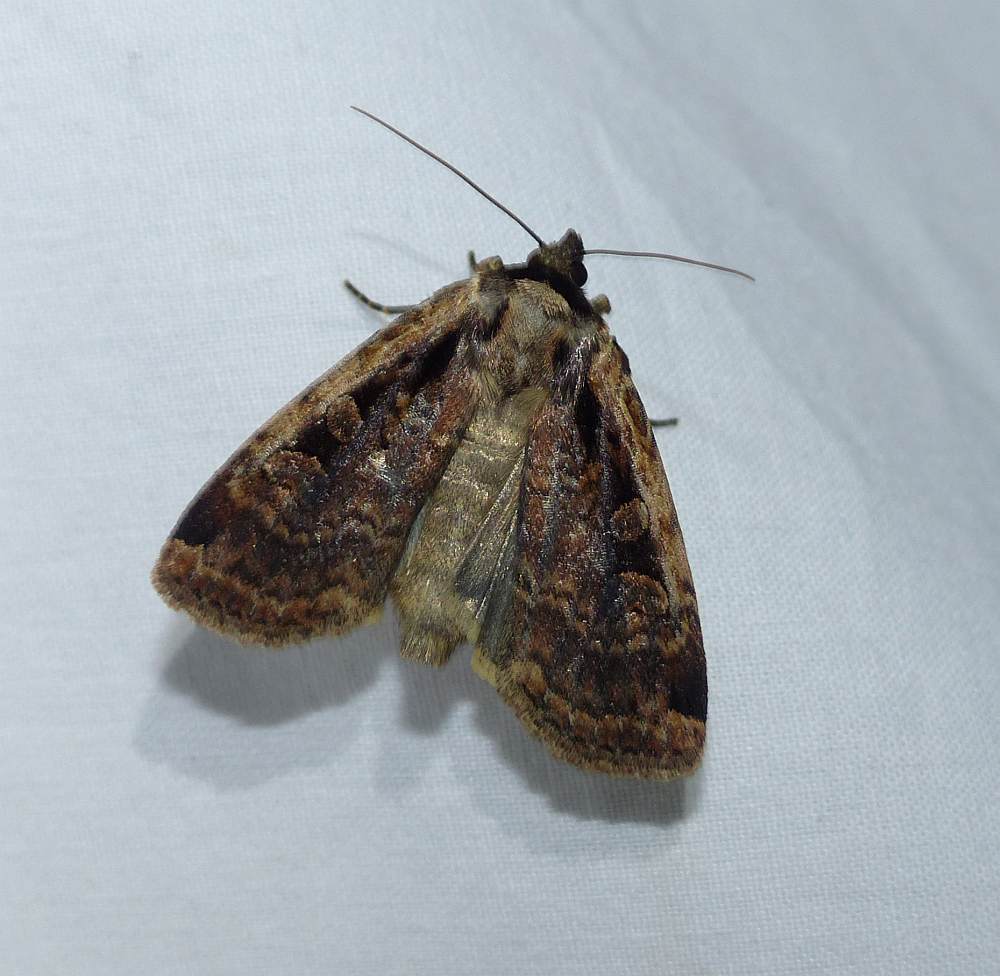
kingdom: Animalia
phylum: Arthropoda
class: Insecta
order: Lepidoptera
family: Noctuidae
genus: Eueretagrotis
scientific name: Eueretagrotis sigmoides
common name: Sigmoid dart
